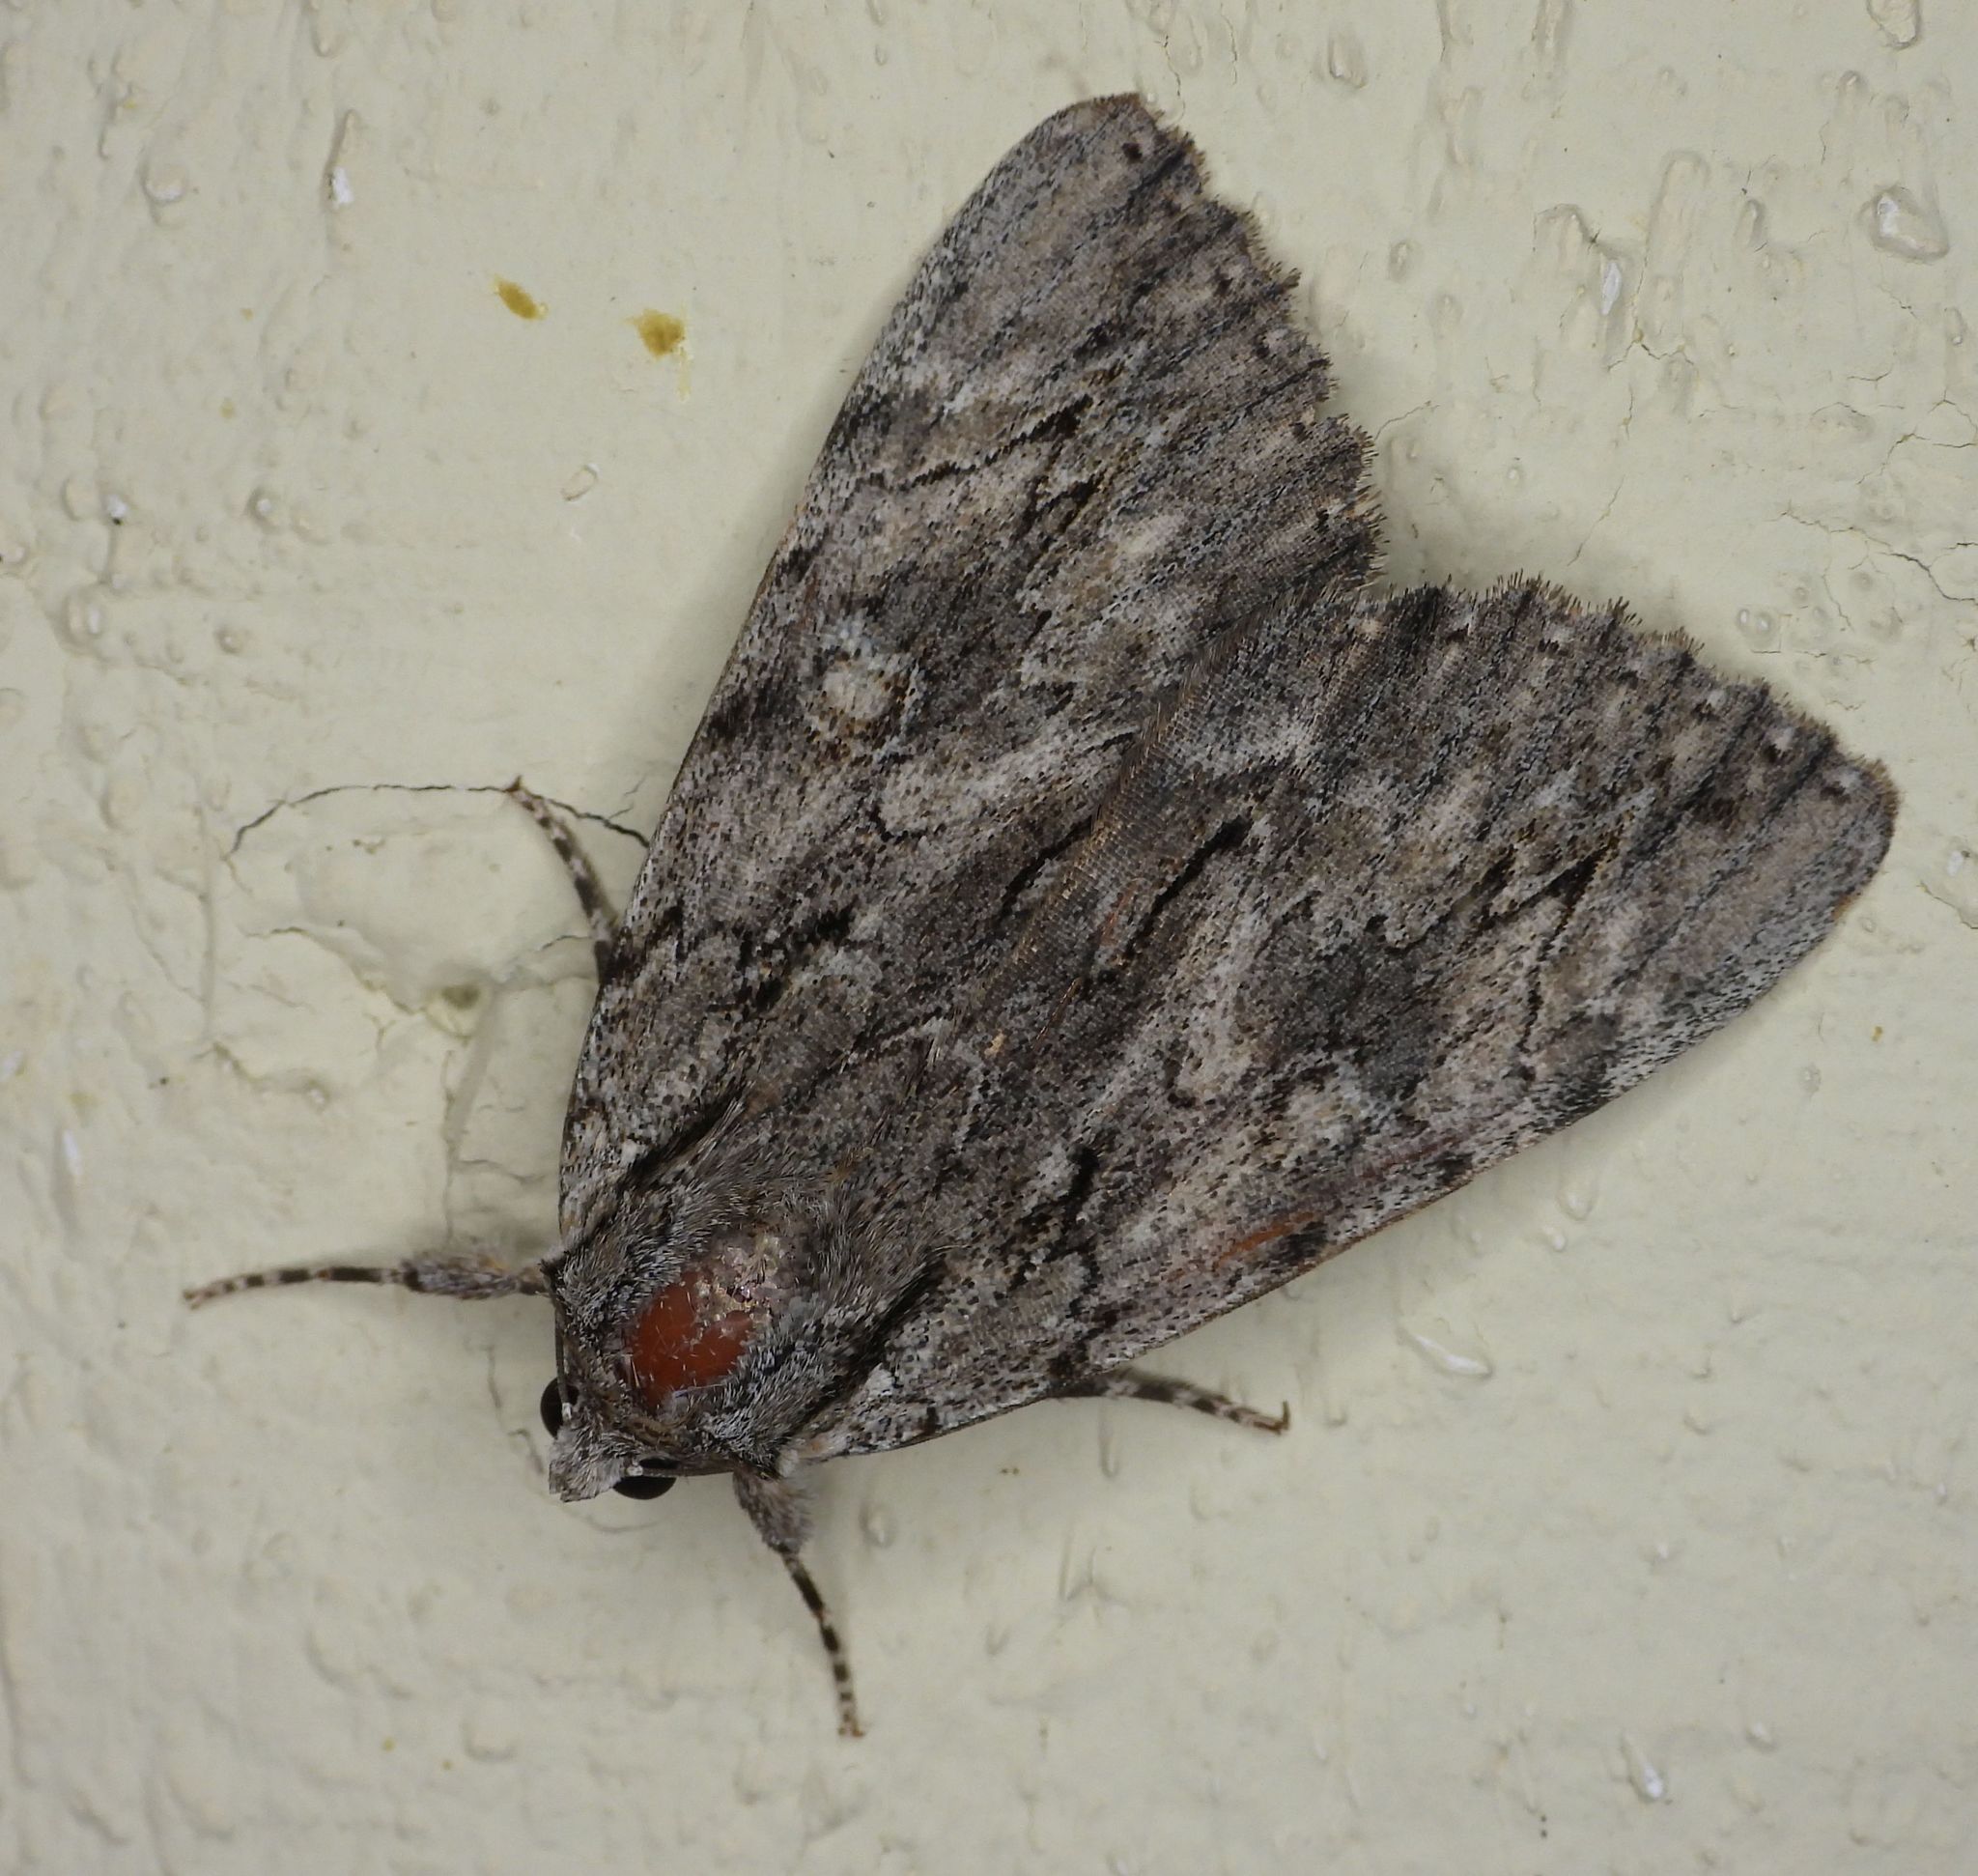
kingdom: Animalia
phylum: Arthropoda
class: Insecta
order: Lepidoptera
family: Erebidae
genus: Catocala
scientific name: Catocala habilis
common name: Habilis underwing
